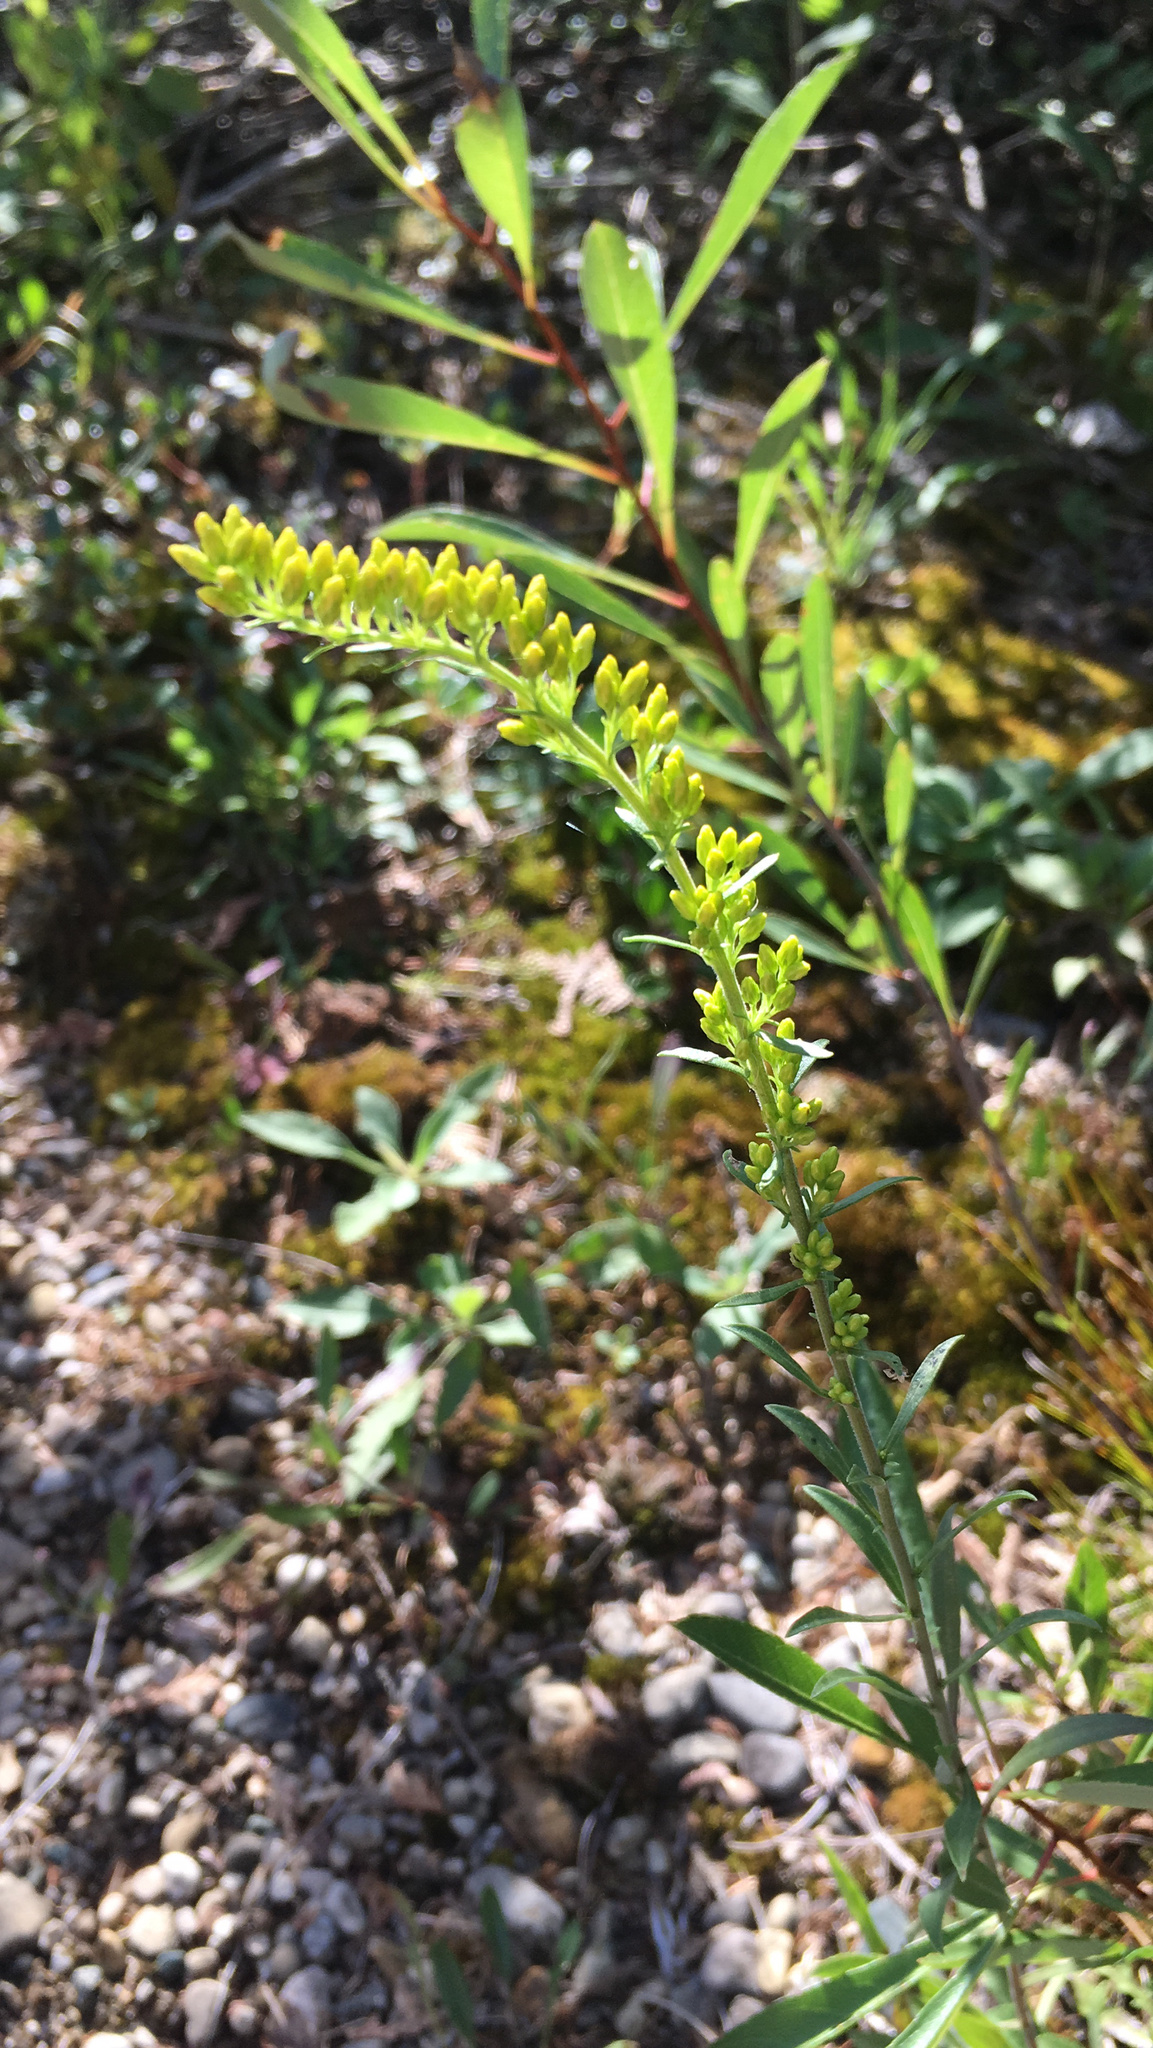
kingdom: Plantae
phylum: Tracheophyta
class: Magnoliopsida
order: Asterales
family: Asteraceae
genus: Solidago
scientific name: Solidago nemoralis
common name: Grey goldenrod
